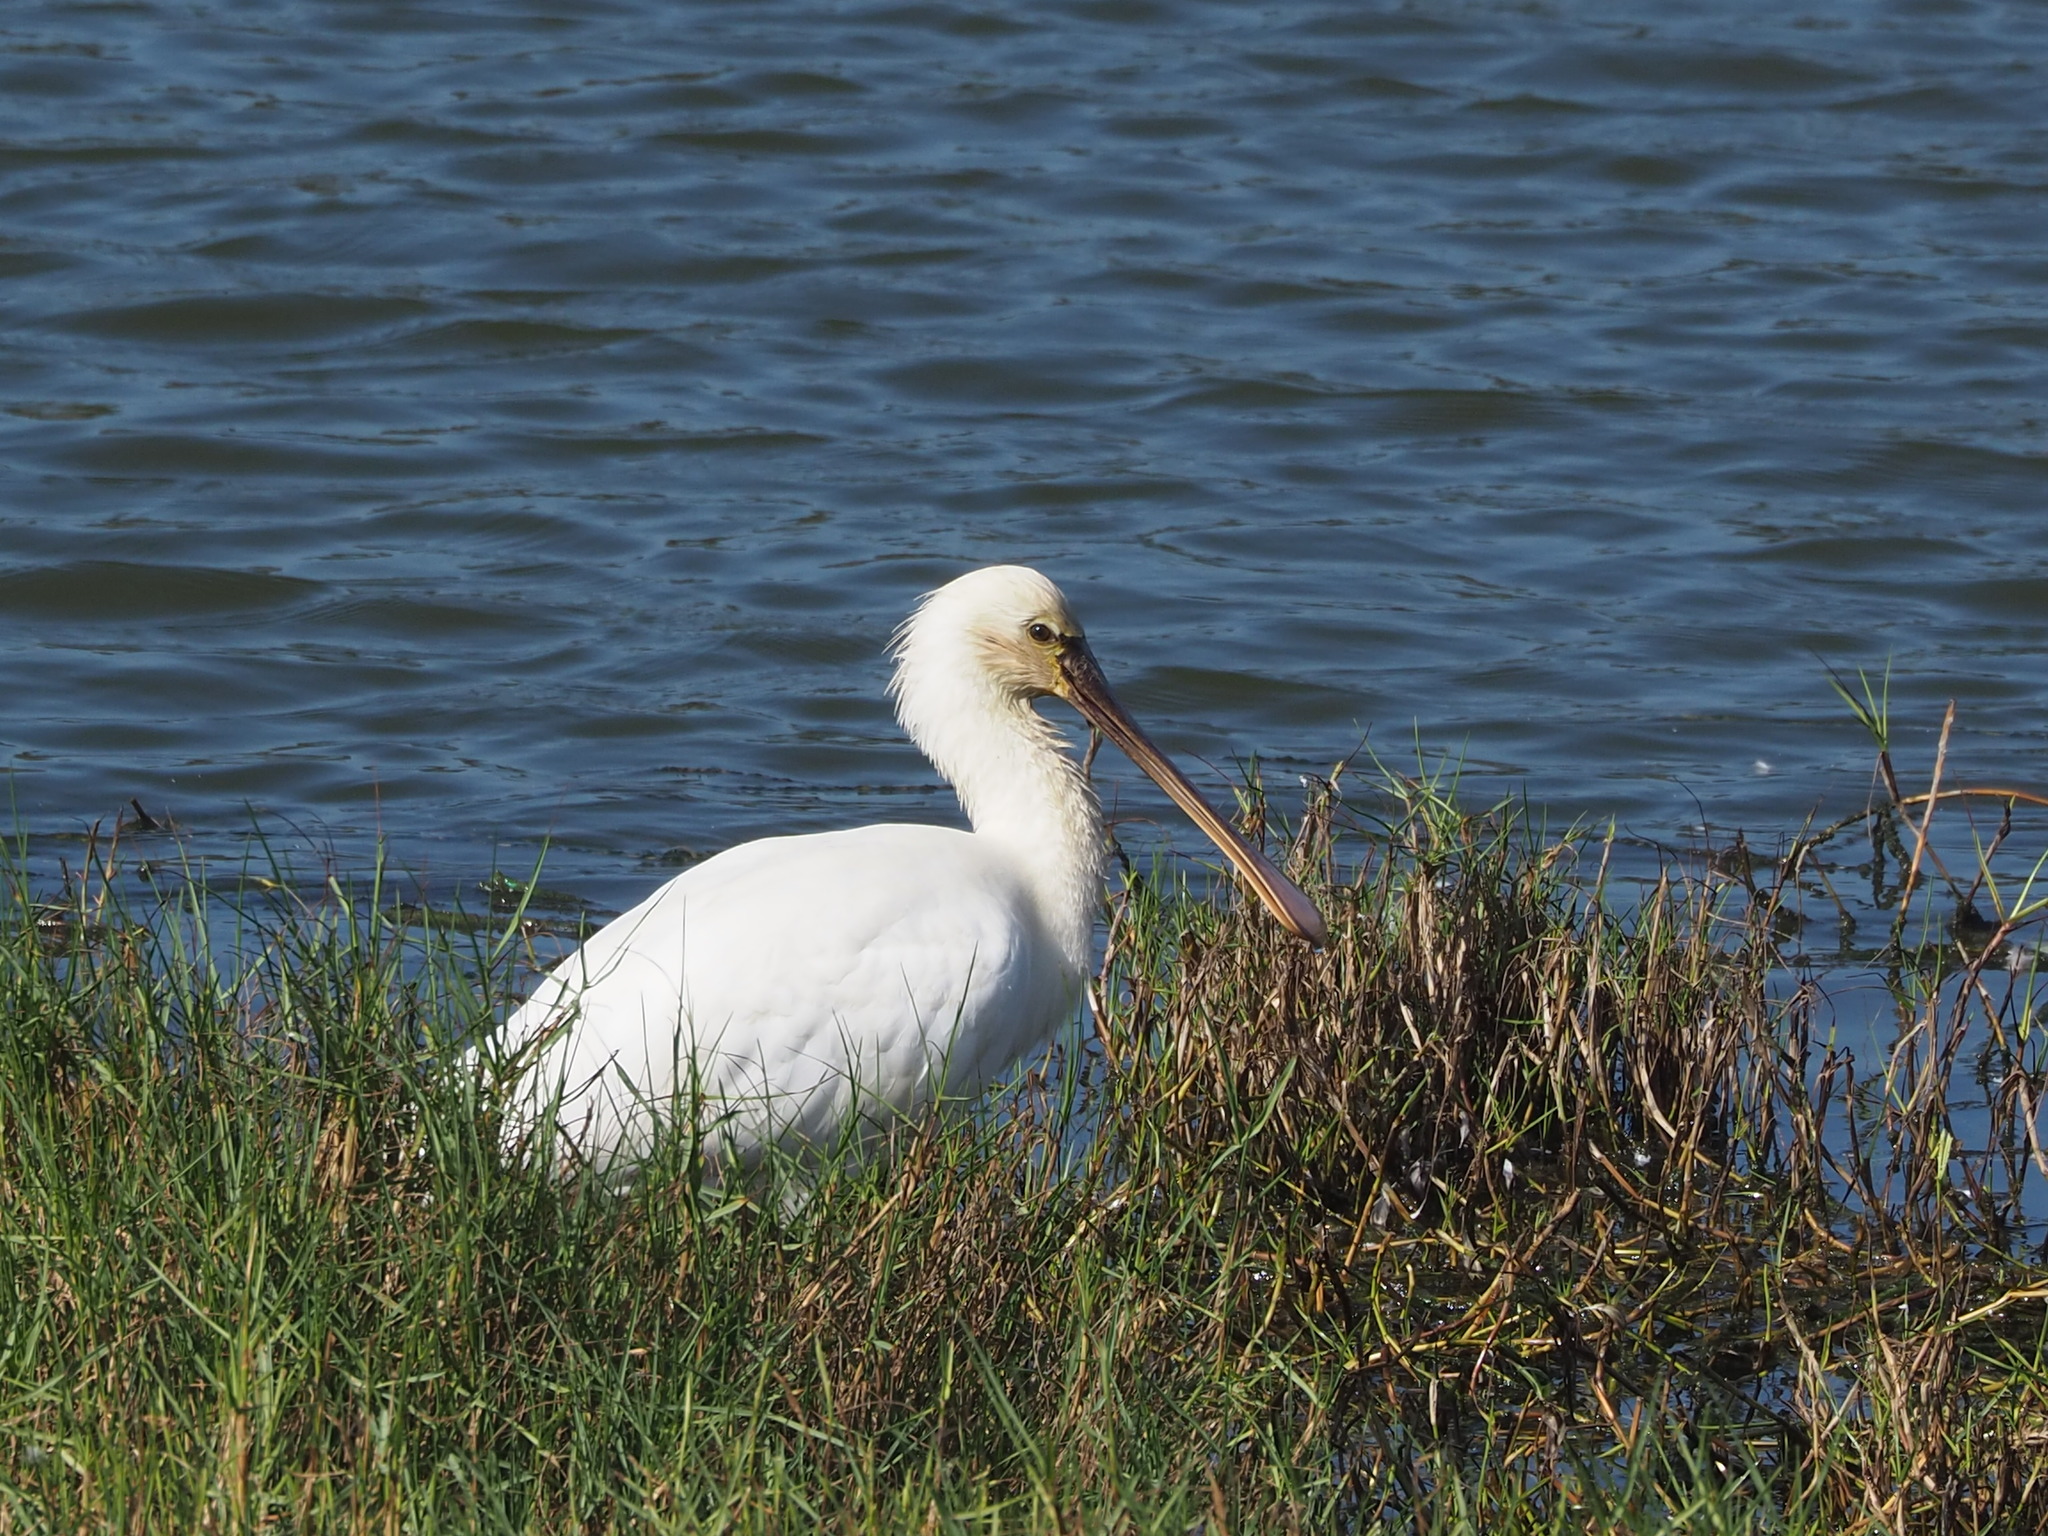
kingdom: Animalia
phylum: Chordata
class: Aves
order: Pelecaniformes
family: Threskiornithidae
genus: Platalea
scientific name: Platalea leucorodia
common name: Eurasian spoonbill
